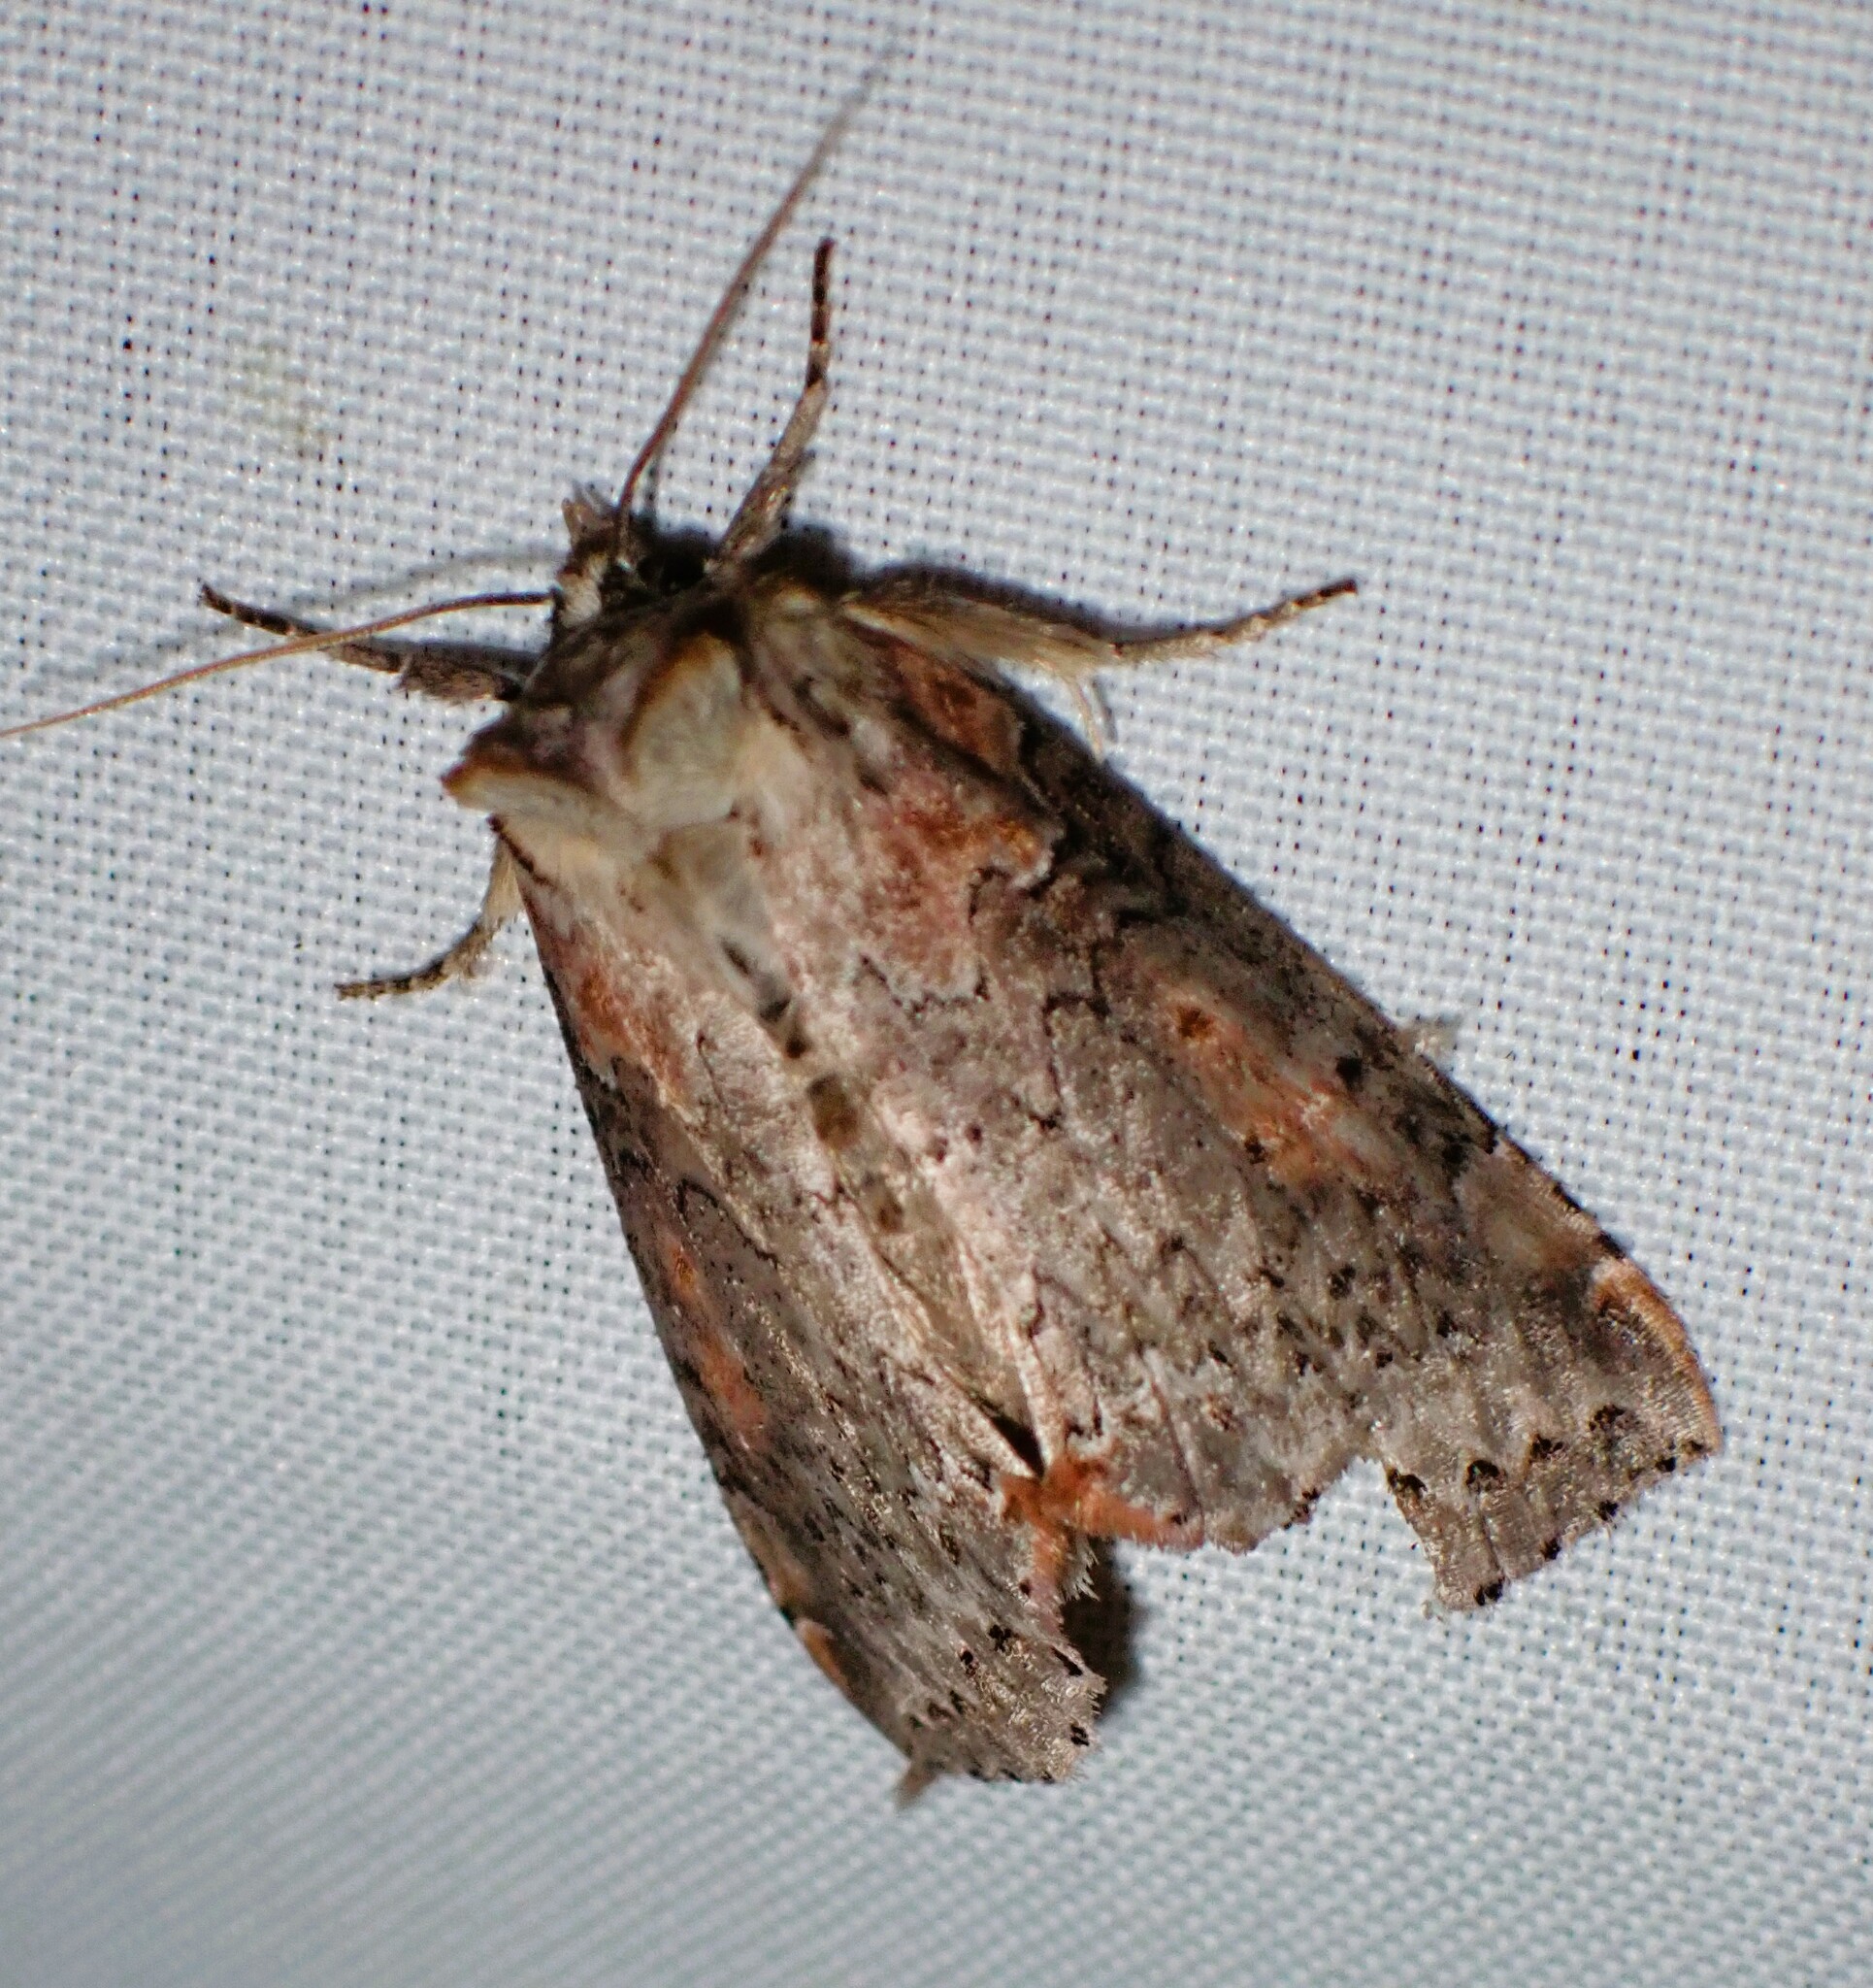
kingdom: Animalia
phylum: Arthropoda
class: Insecta
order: Lepidoptera
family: Drepanidae
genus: Pseudothyatira
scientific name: Pseudothyatira cymatophoroides
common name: Tufted thyatirid moth
